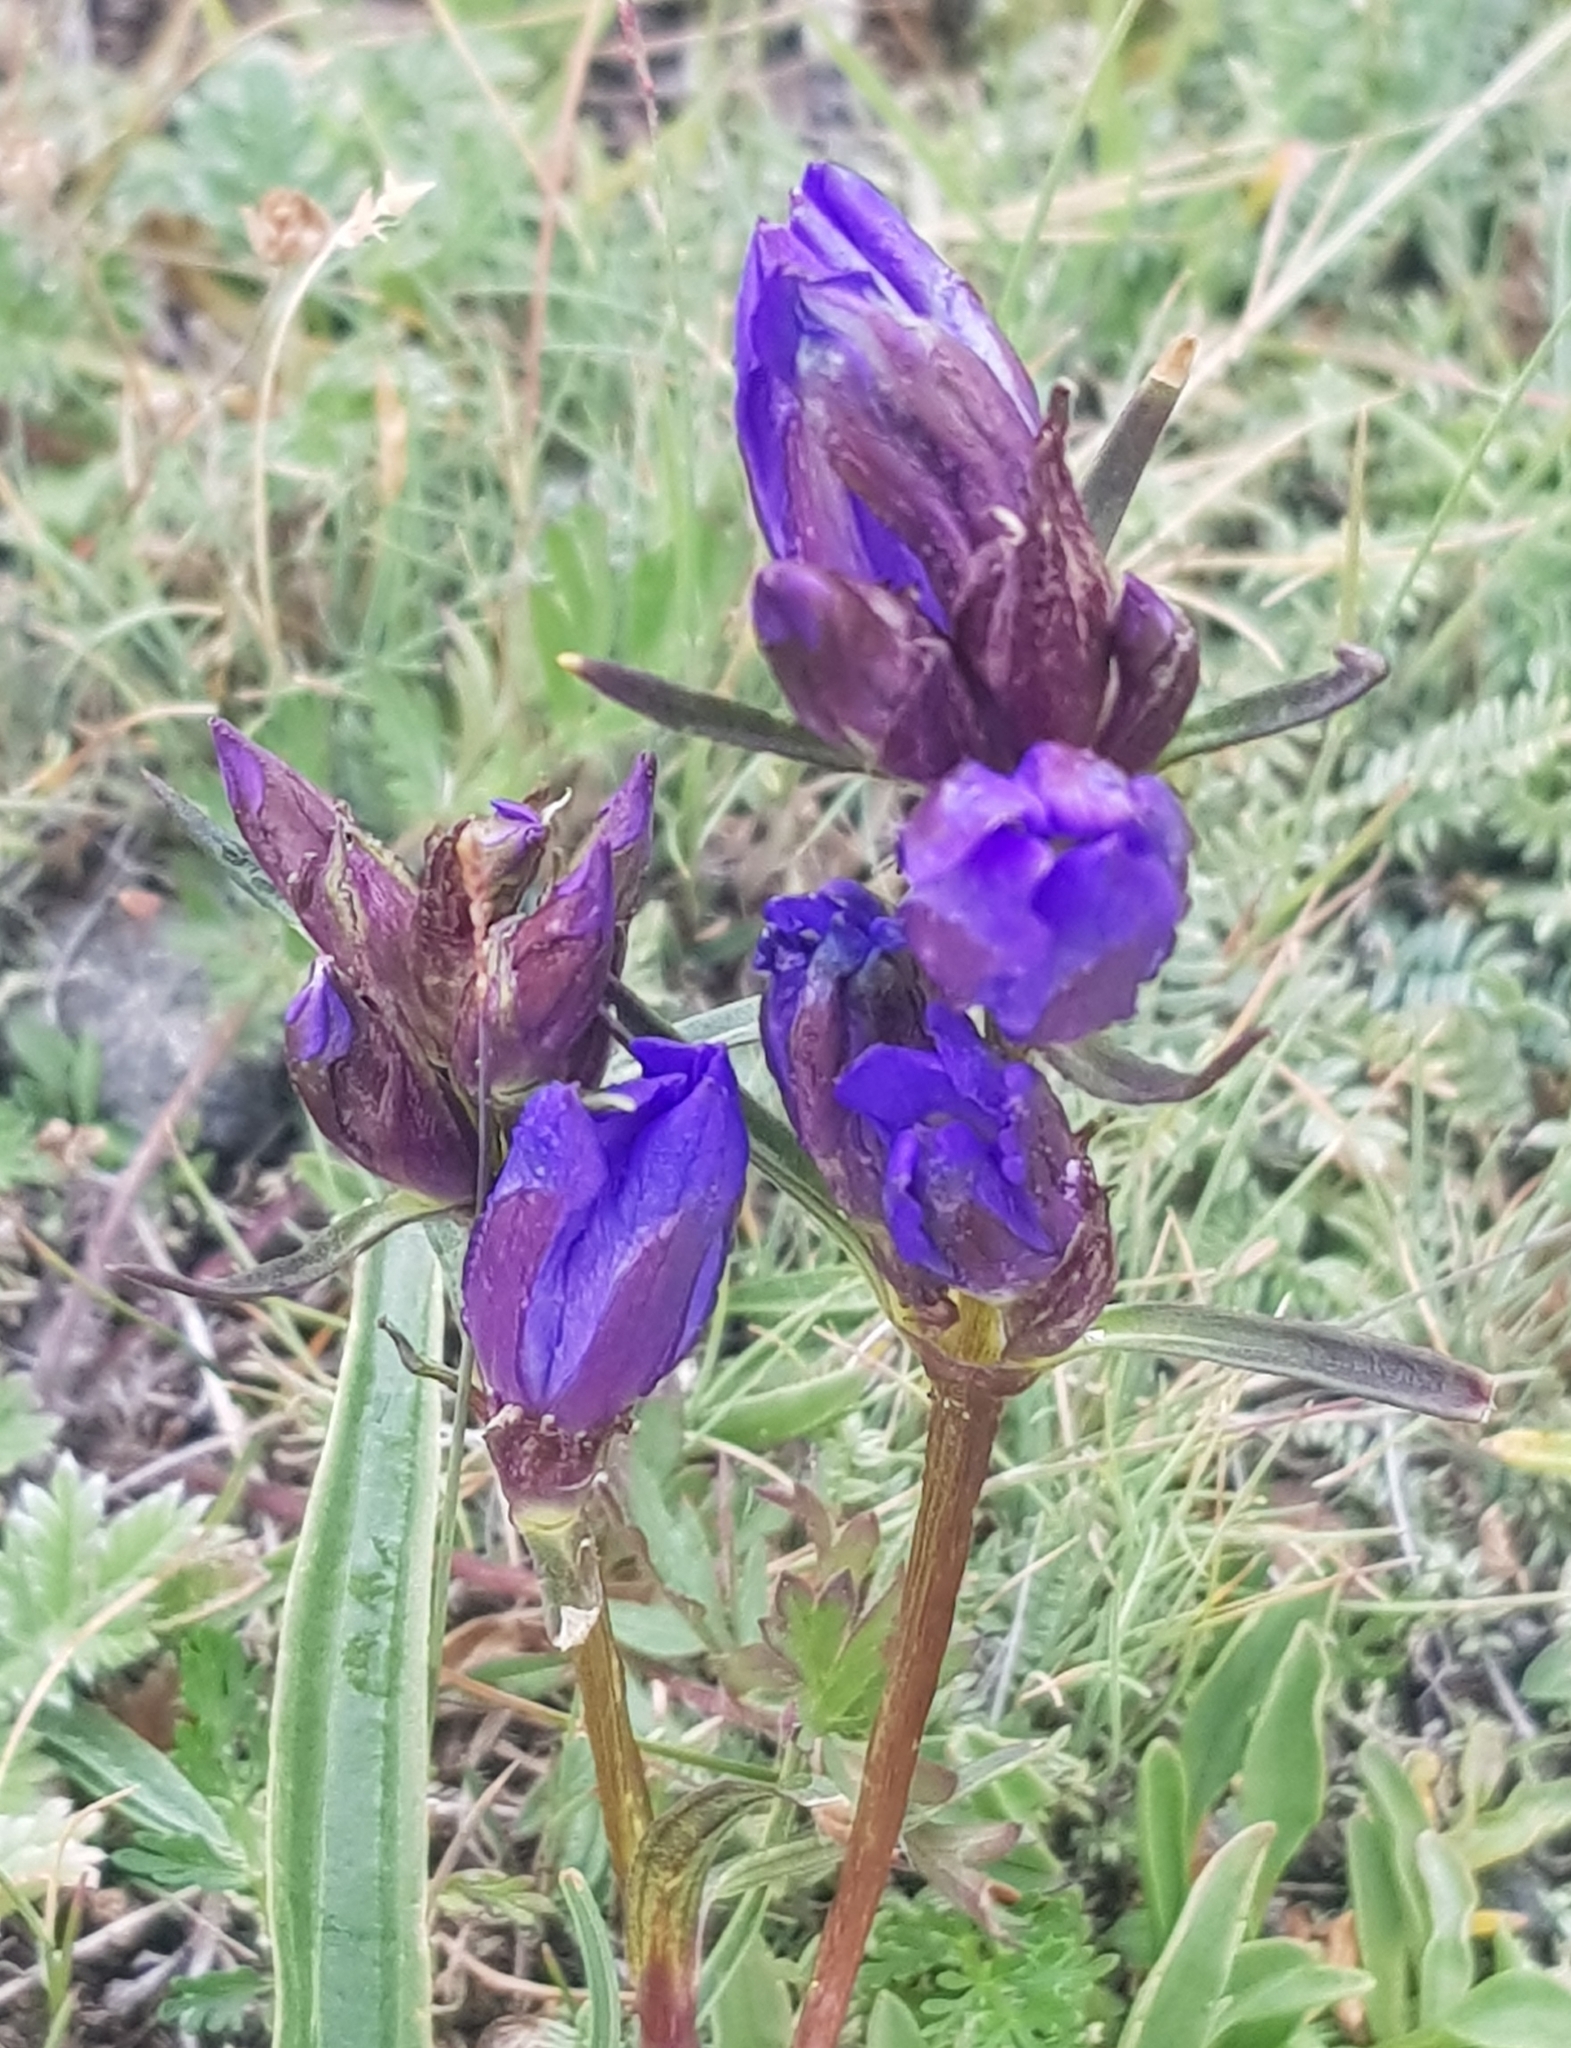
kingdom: Plantae
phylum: Tracheophyta
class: Magnoliopsida
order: Gentianales
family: Gentianaceae
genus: Gentiana
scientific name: Gentiana decumbens
